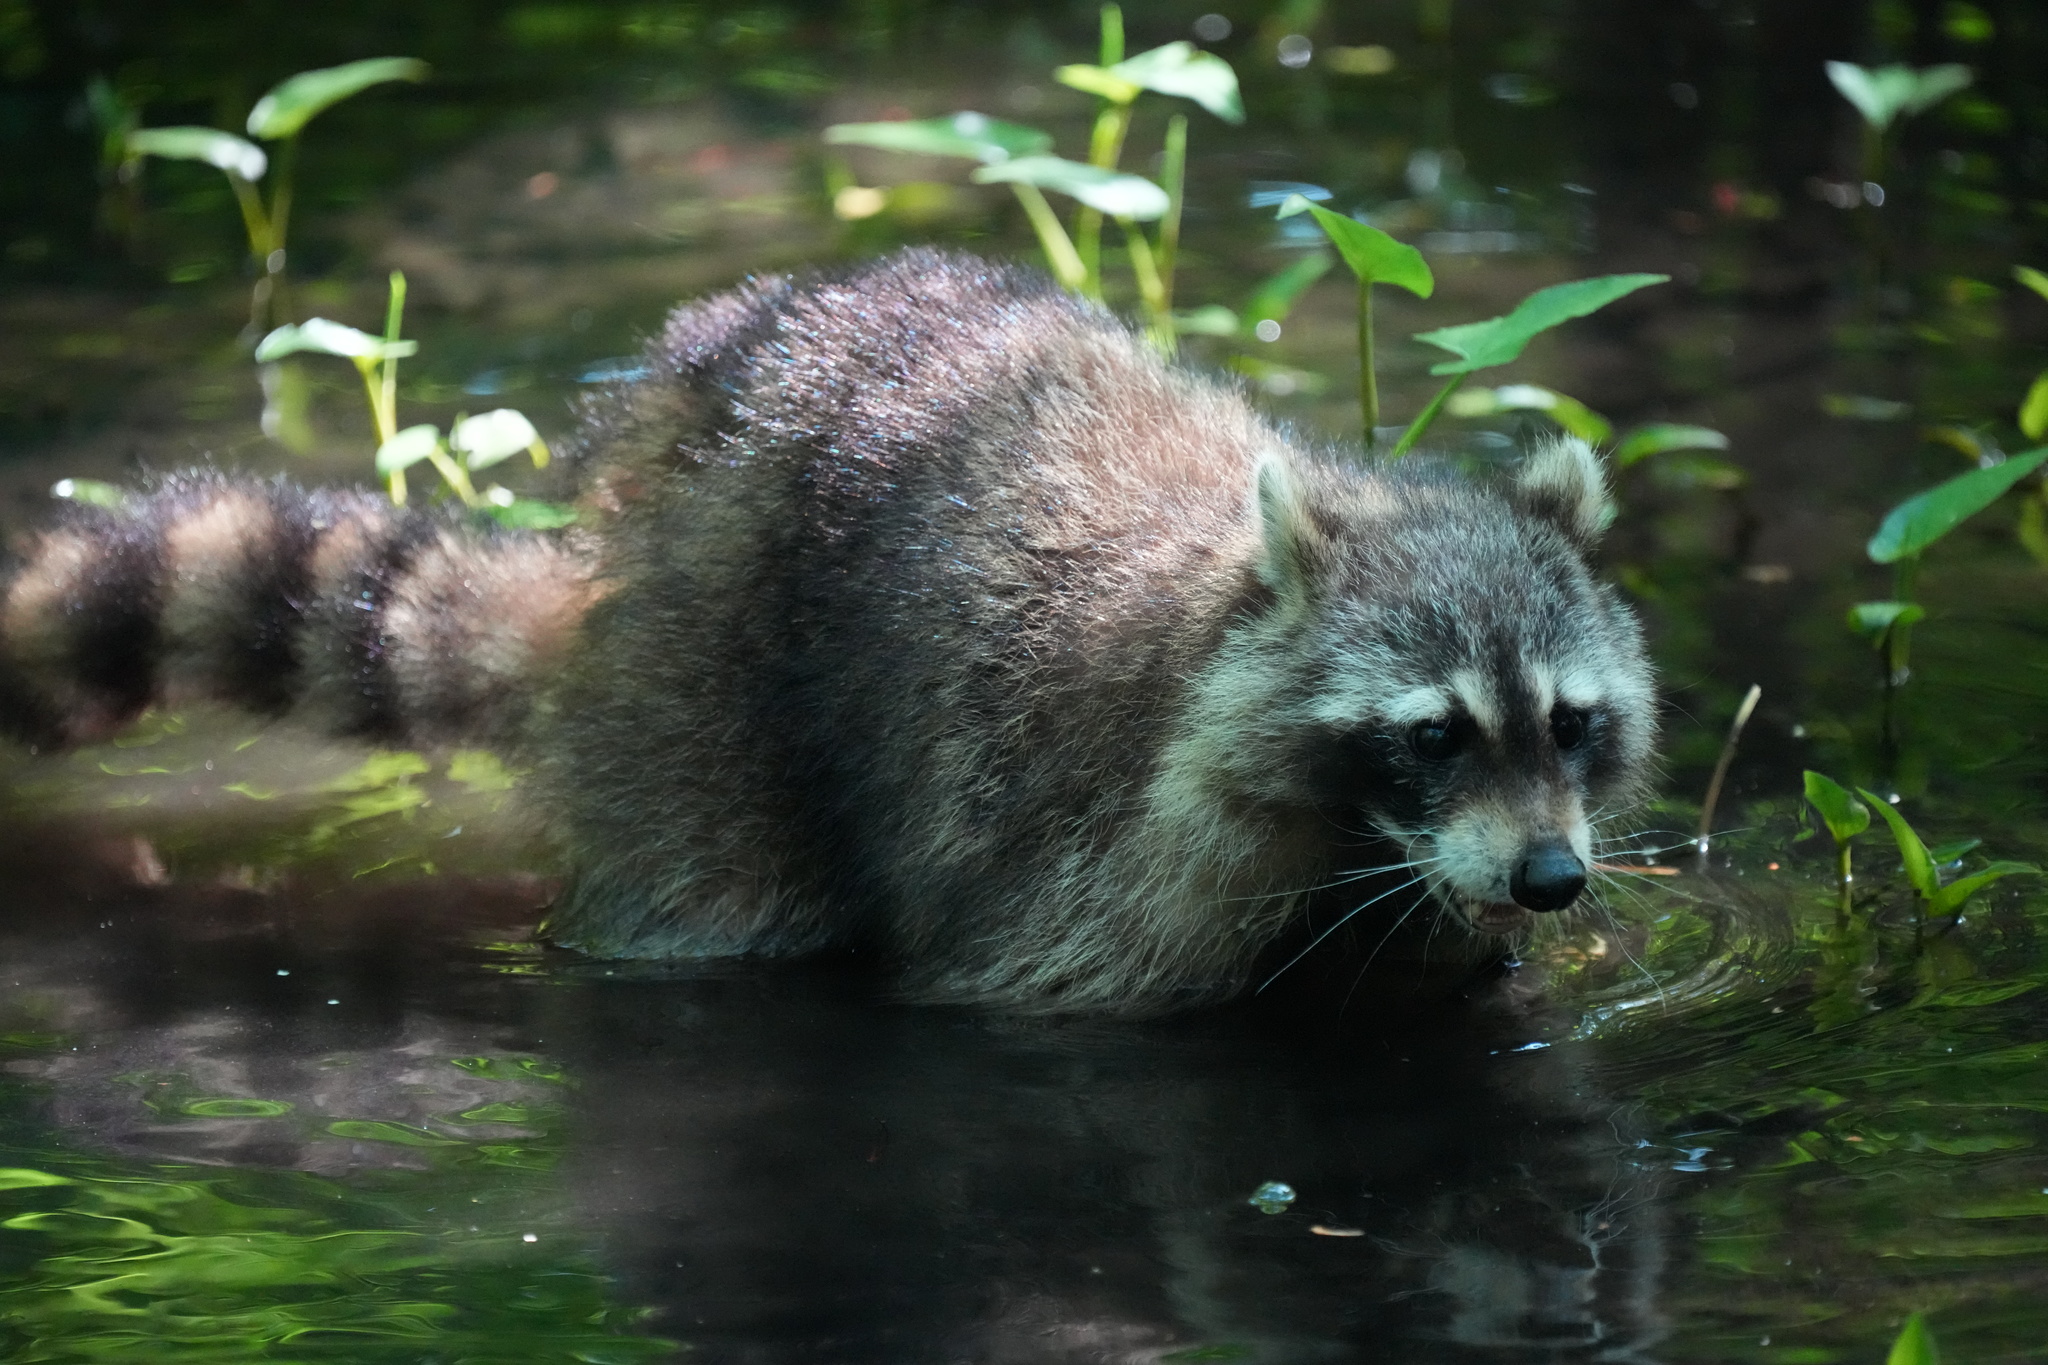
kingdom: Animalia
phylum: Chordata
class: Mammalia
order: Carnivora
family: Procyonidae
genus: Procyon
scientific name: Procyon lotor
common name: Raccoon
